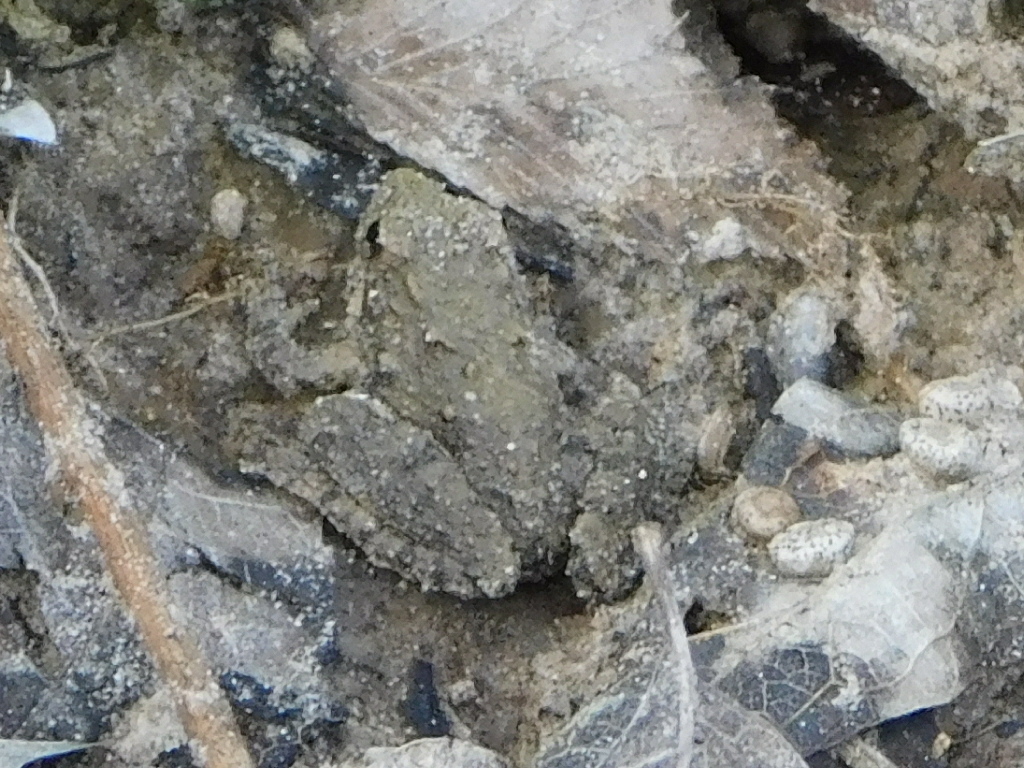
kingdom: Animalia
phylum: Chordata
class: Amphibia
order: Anura
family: Hylidae
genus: Acris
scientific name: Acris blanchardi
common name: Blanchard's cricket frog
